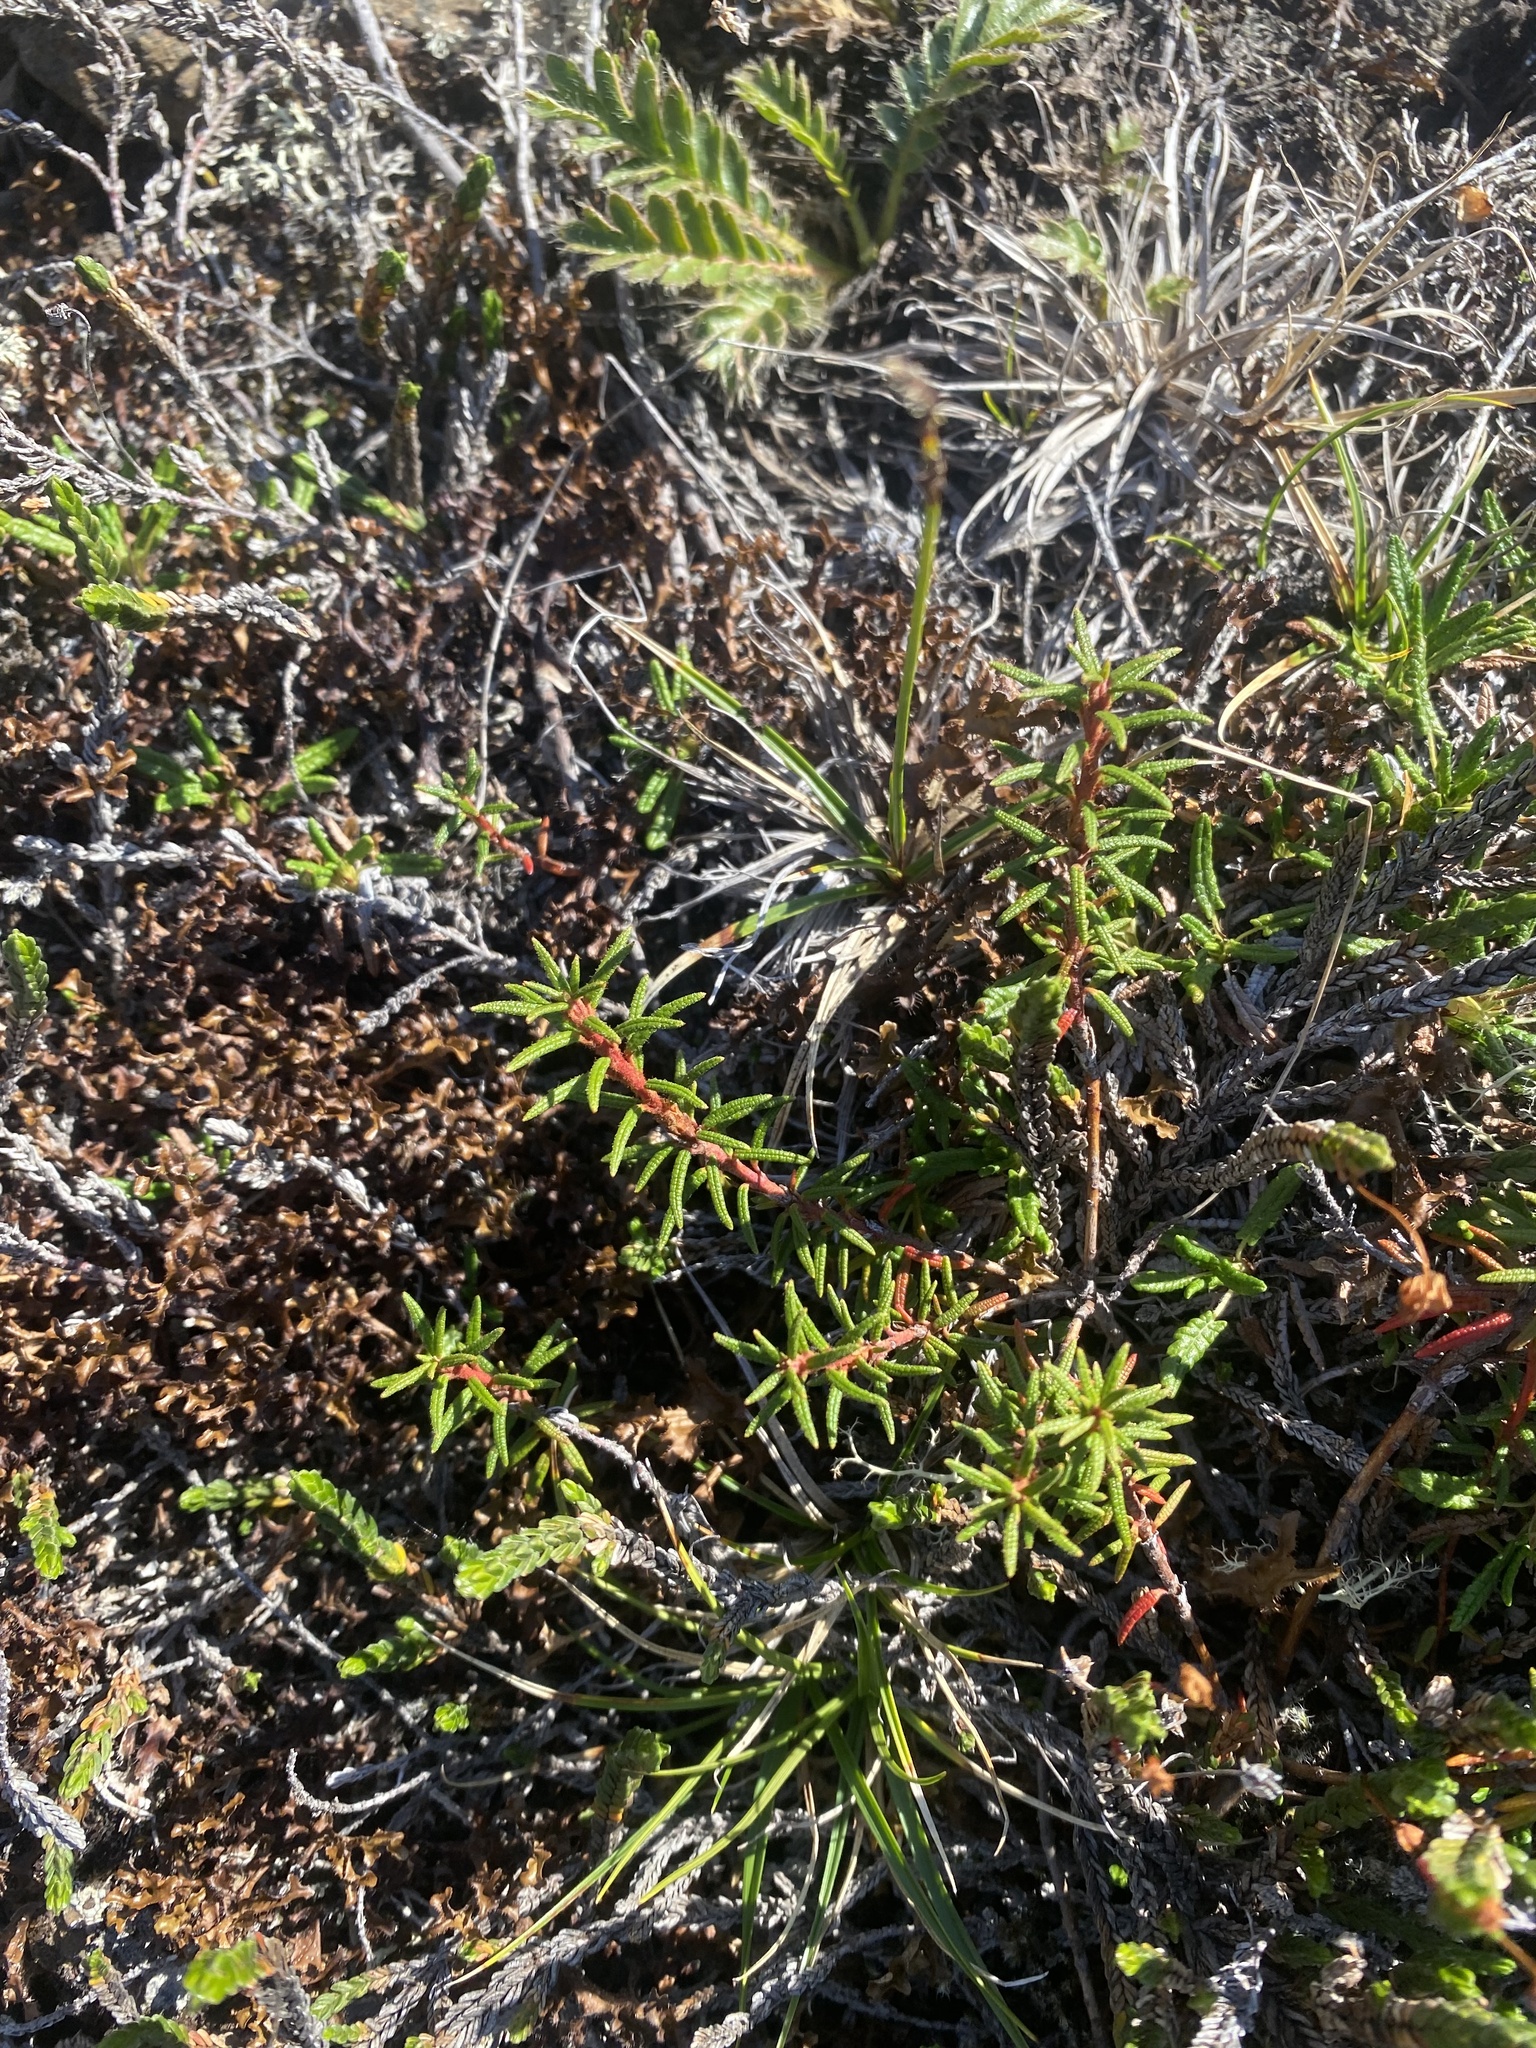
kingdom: Plantae
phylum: Tracheophyta
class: Magnoliopsida
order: Ericales
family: Ericaceae
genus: Rhododendron
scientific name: Rhododendron tomentosum
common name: Marsh labrador tea
